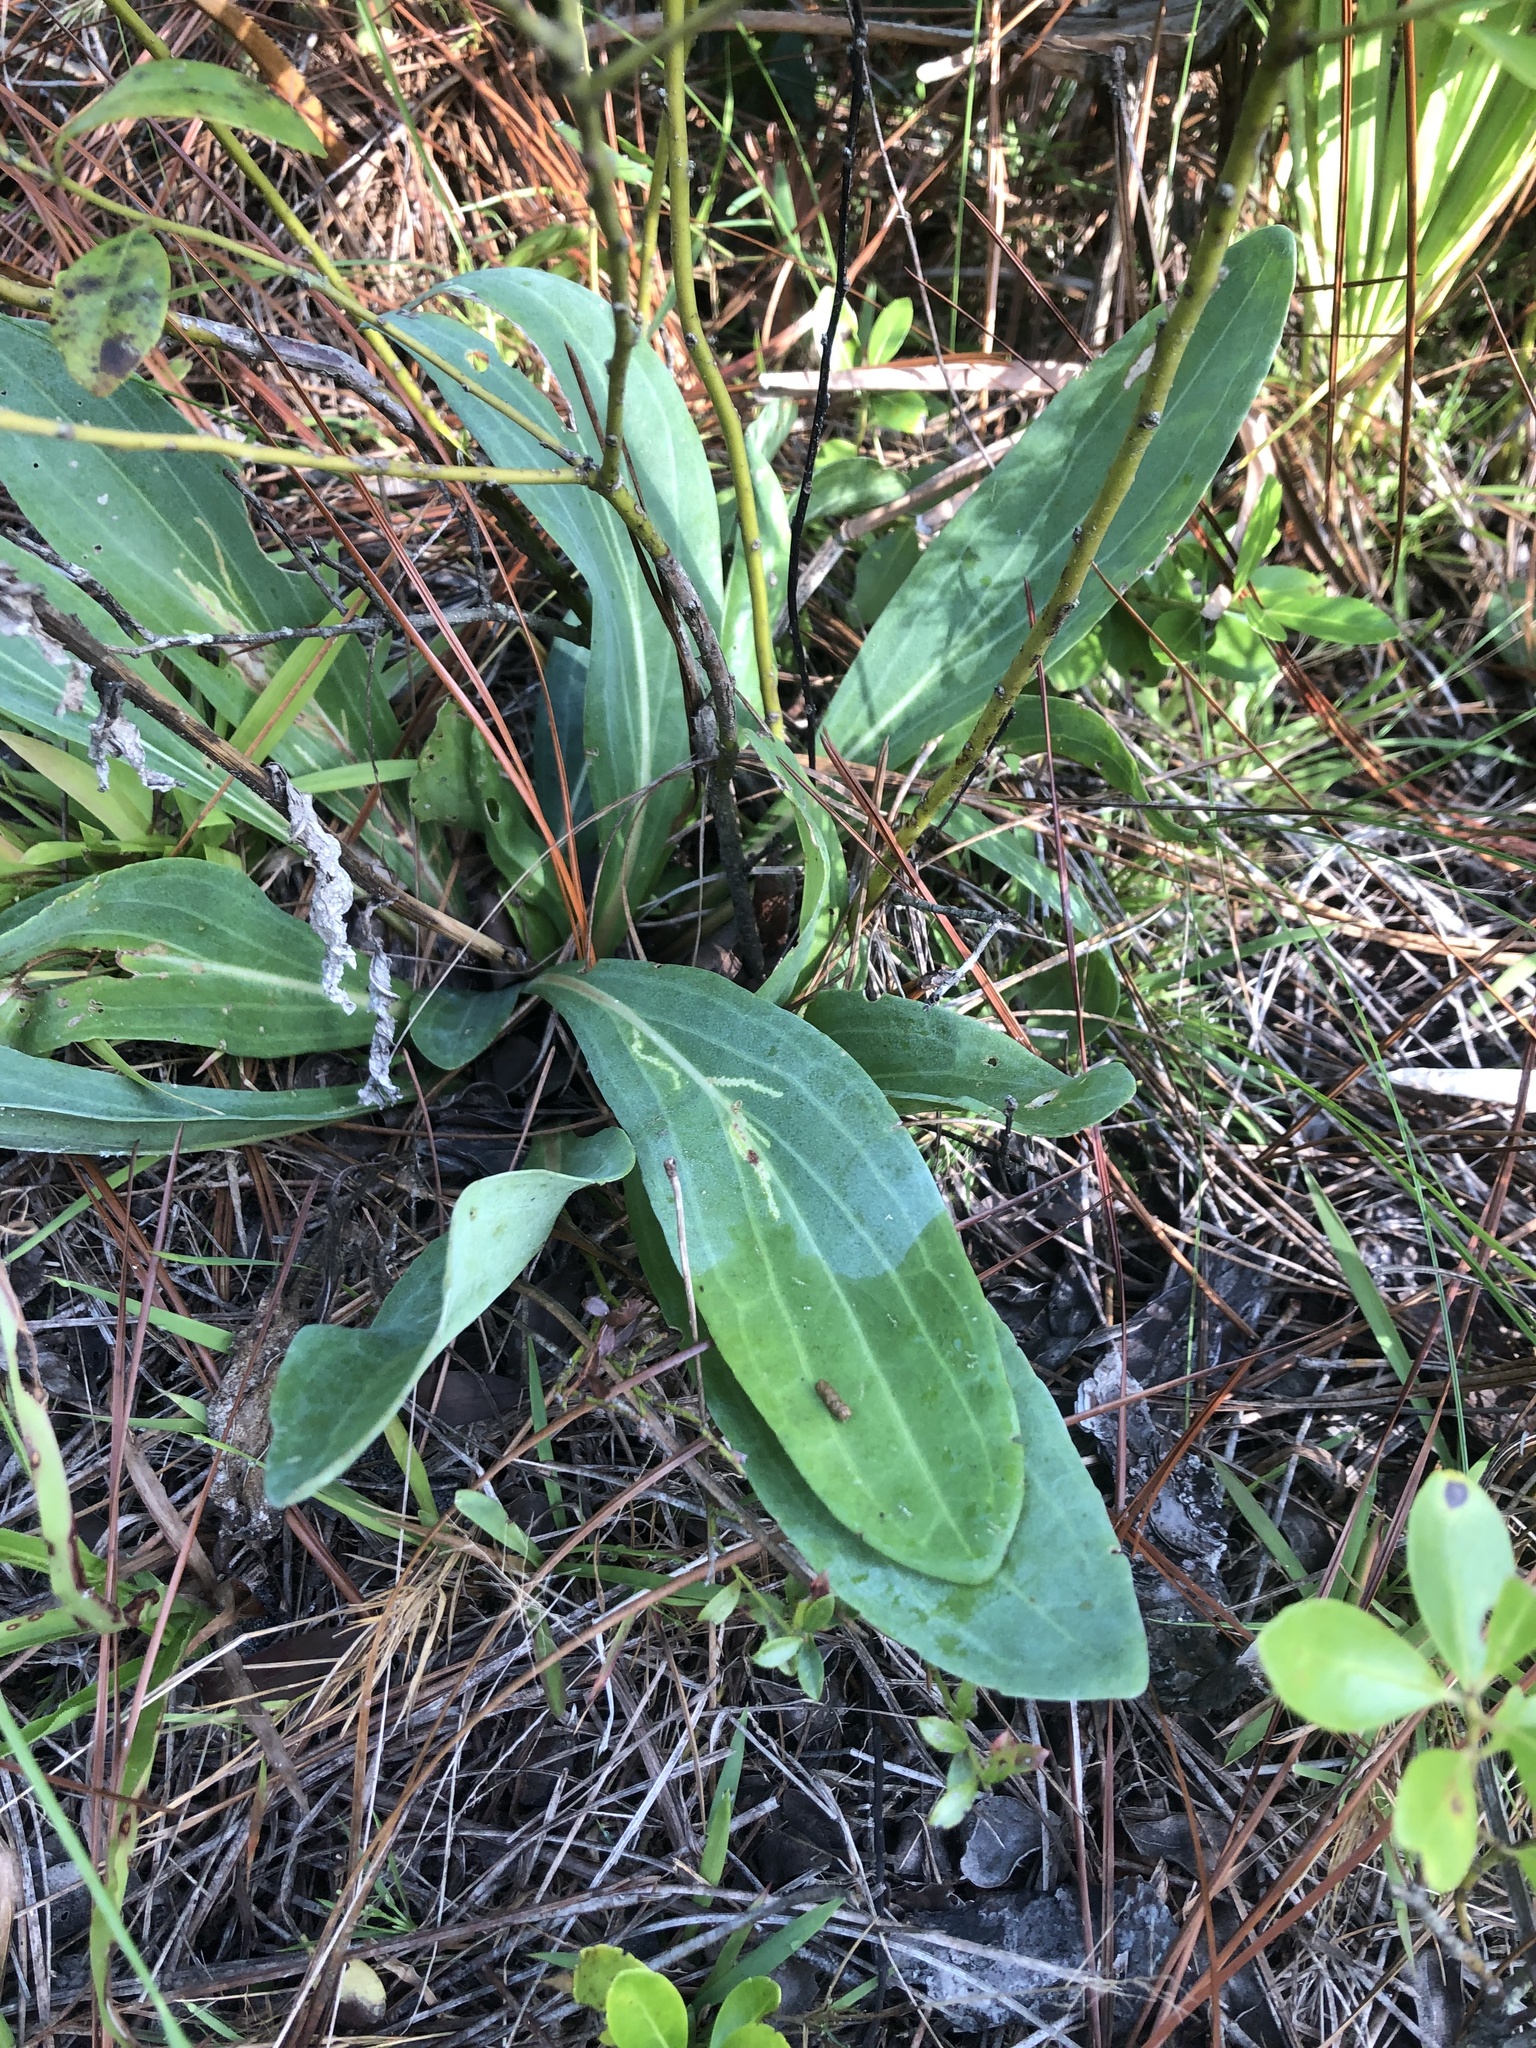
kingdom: Plantae
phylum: Tracheophyta
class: Magnoliopsida
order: Asterales
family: Asteraceae
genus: Carphephorus
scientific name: Carphephorus odoratissimus
